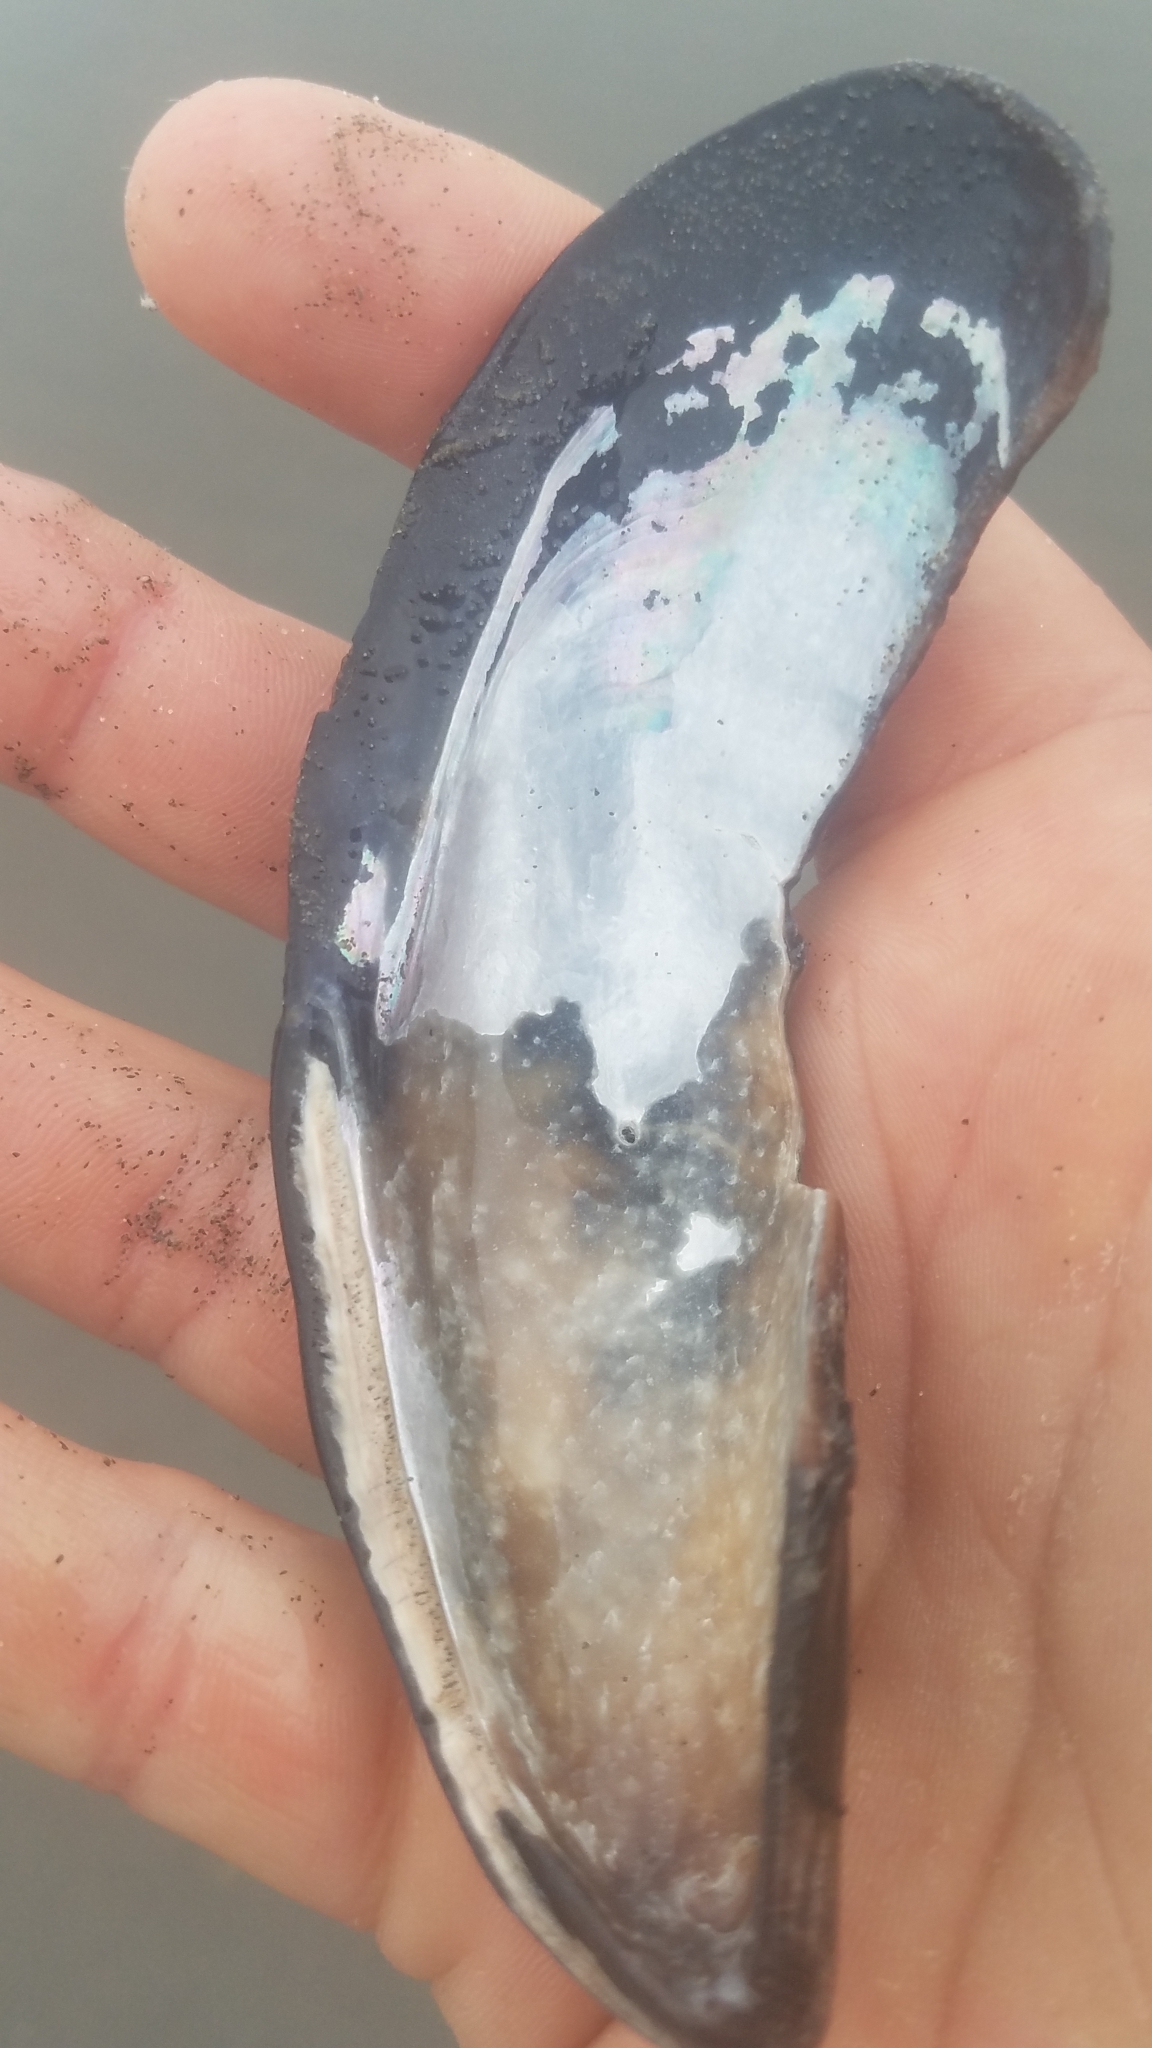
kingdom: Animalia
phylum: Mollusca
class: Bivalvia
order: Mytilida
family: Mytilidae
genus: Mytilus
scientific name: Mytilus californianus
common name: California mussel
